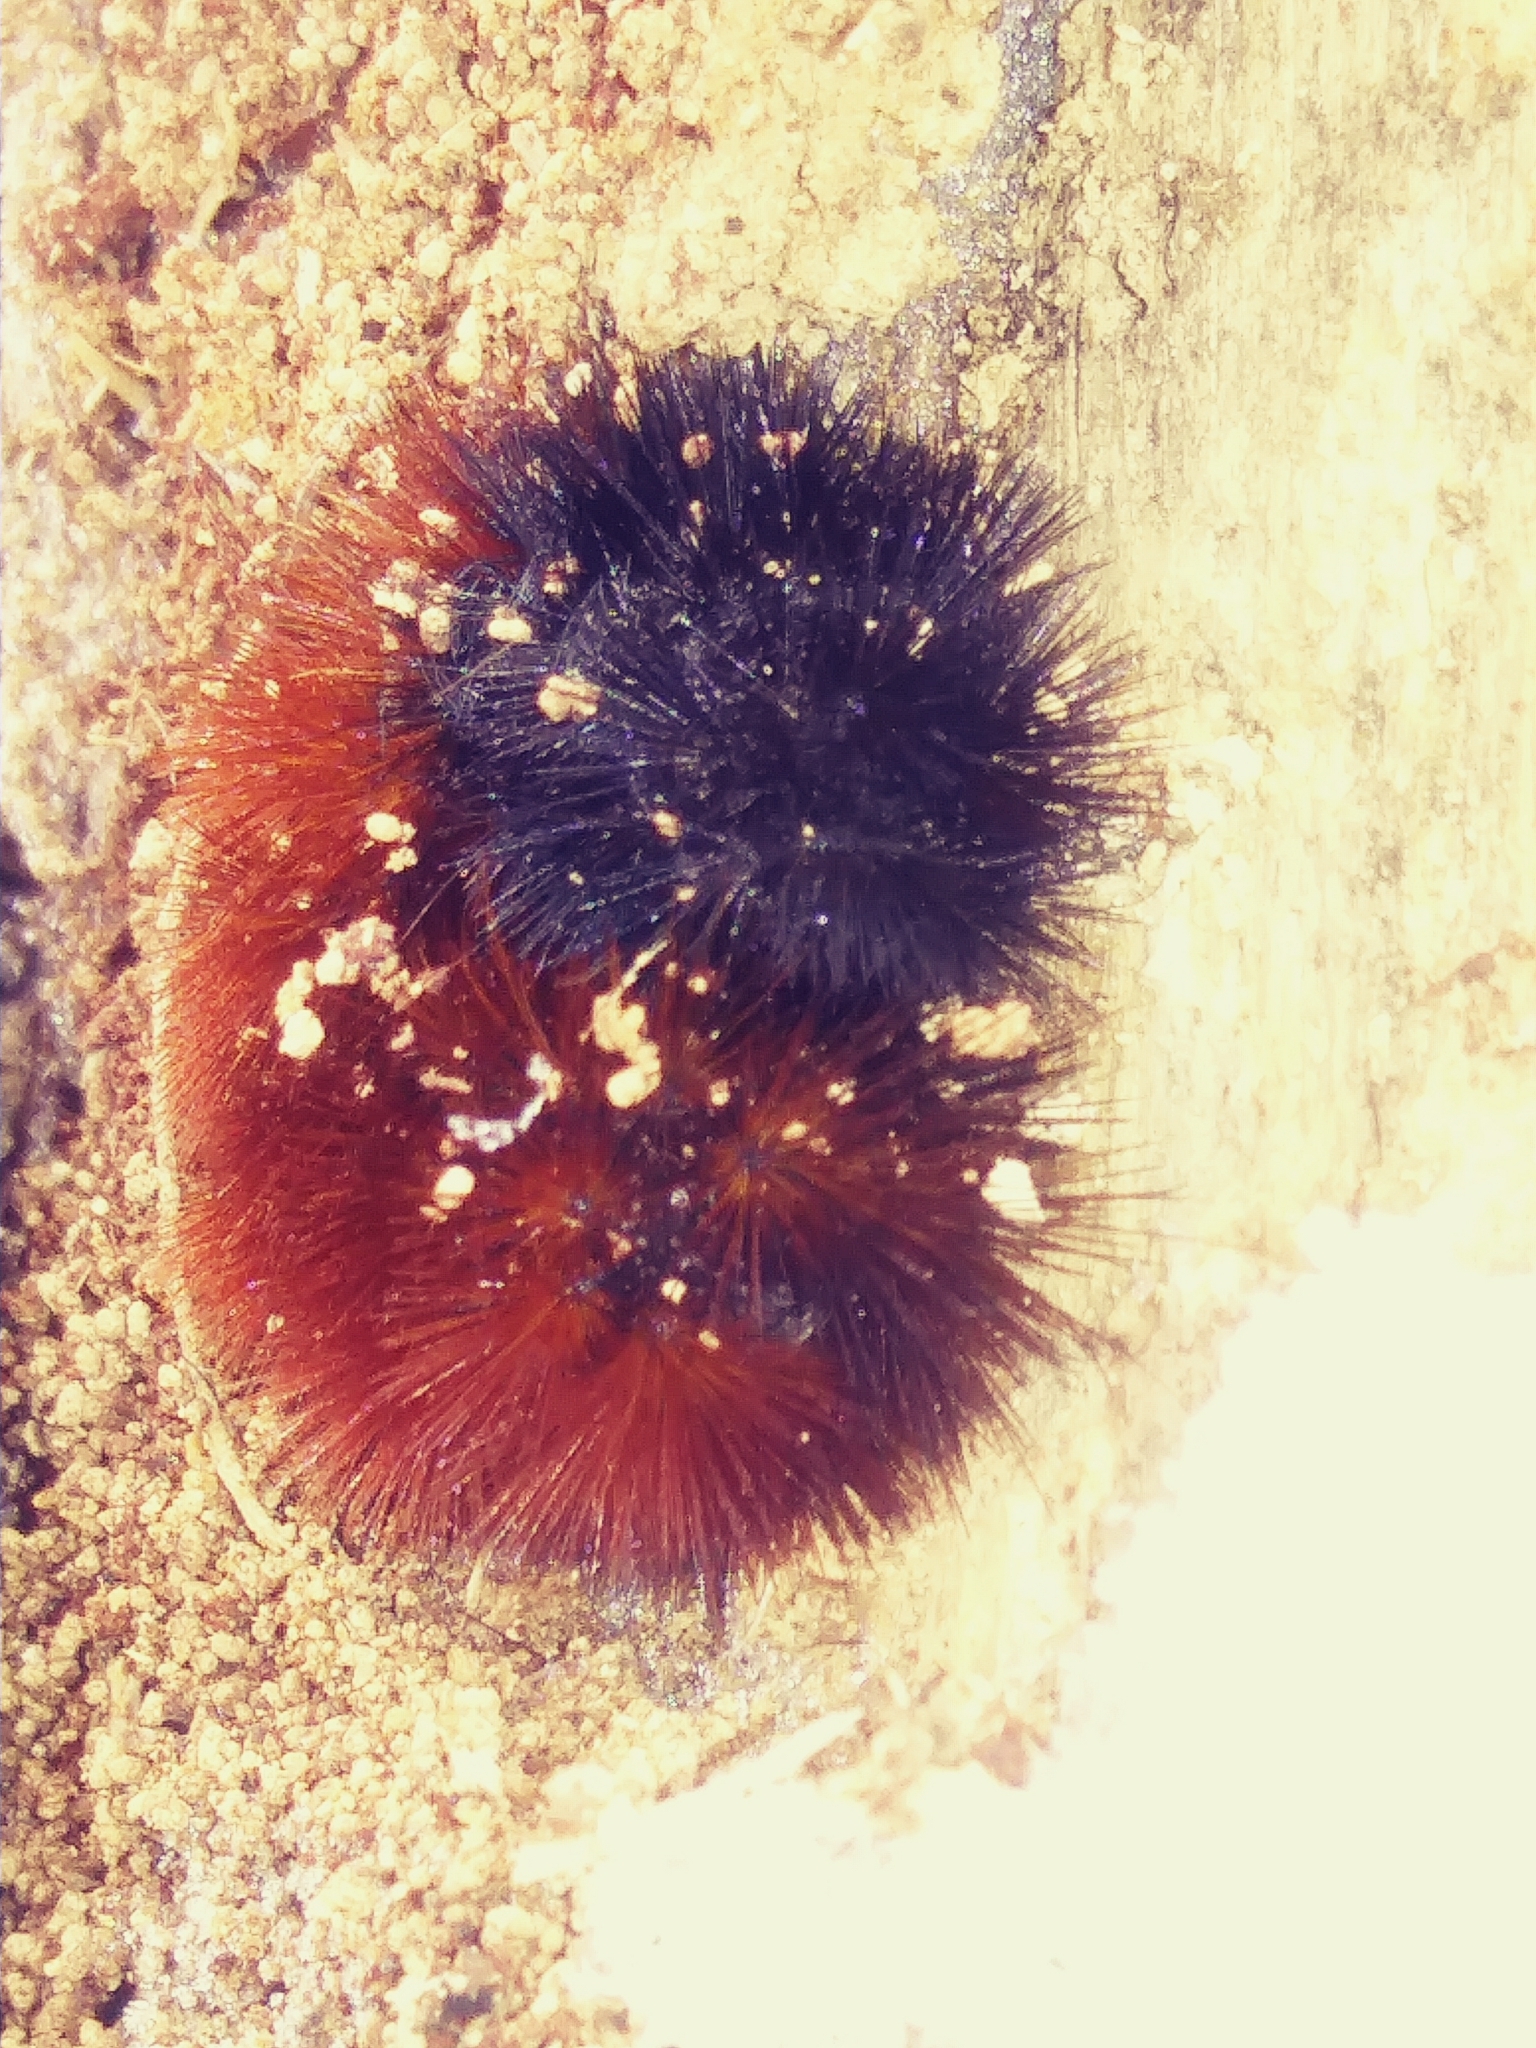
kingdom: Animalia
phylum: Arthropoda
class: Insecta
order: Lepidoptera
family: Erebidae
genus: Pyrrharctia
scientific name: Pyrrharctia isabella
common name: Isabella tiger moth
